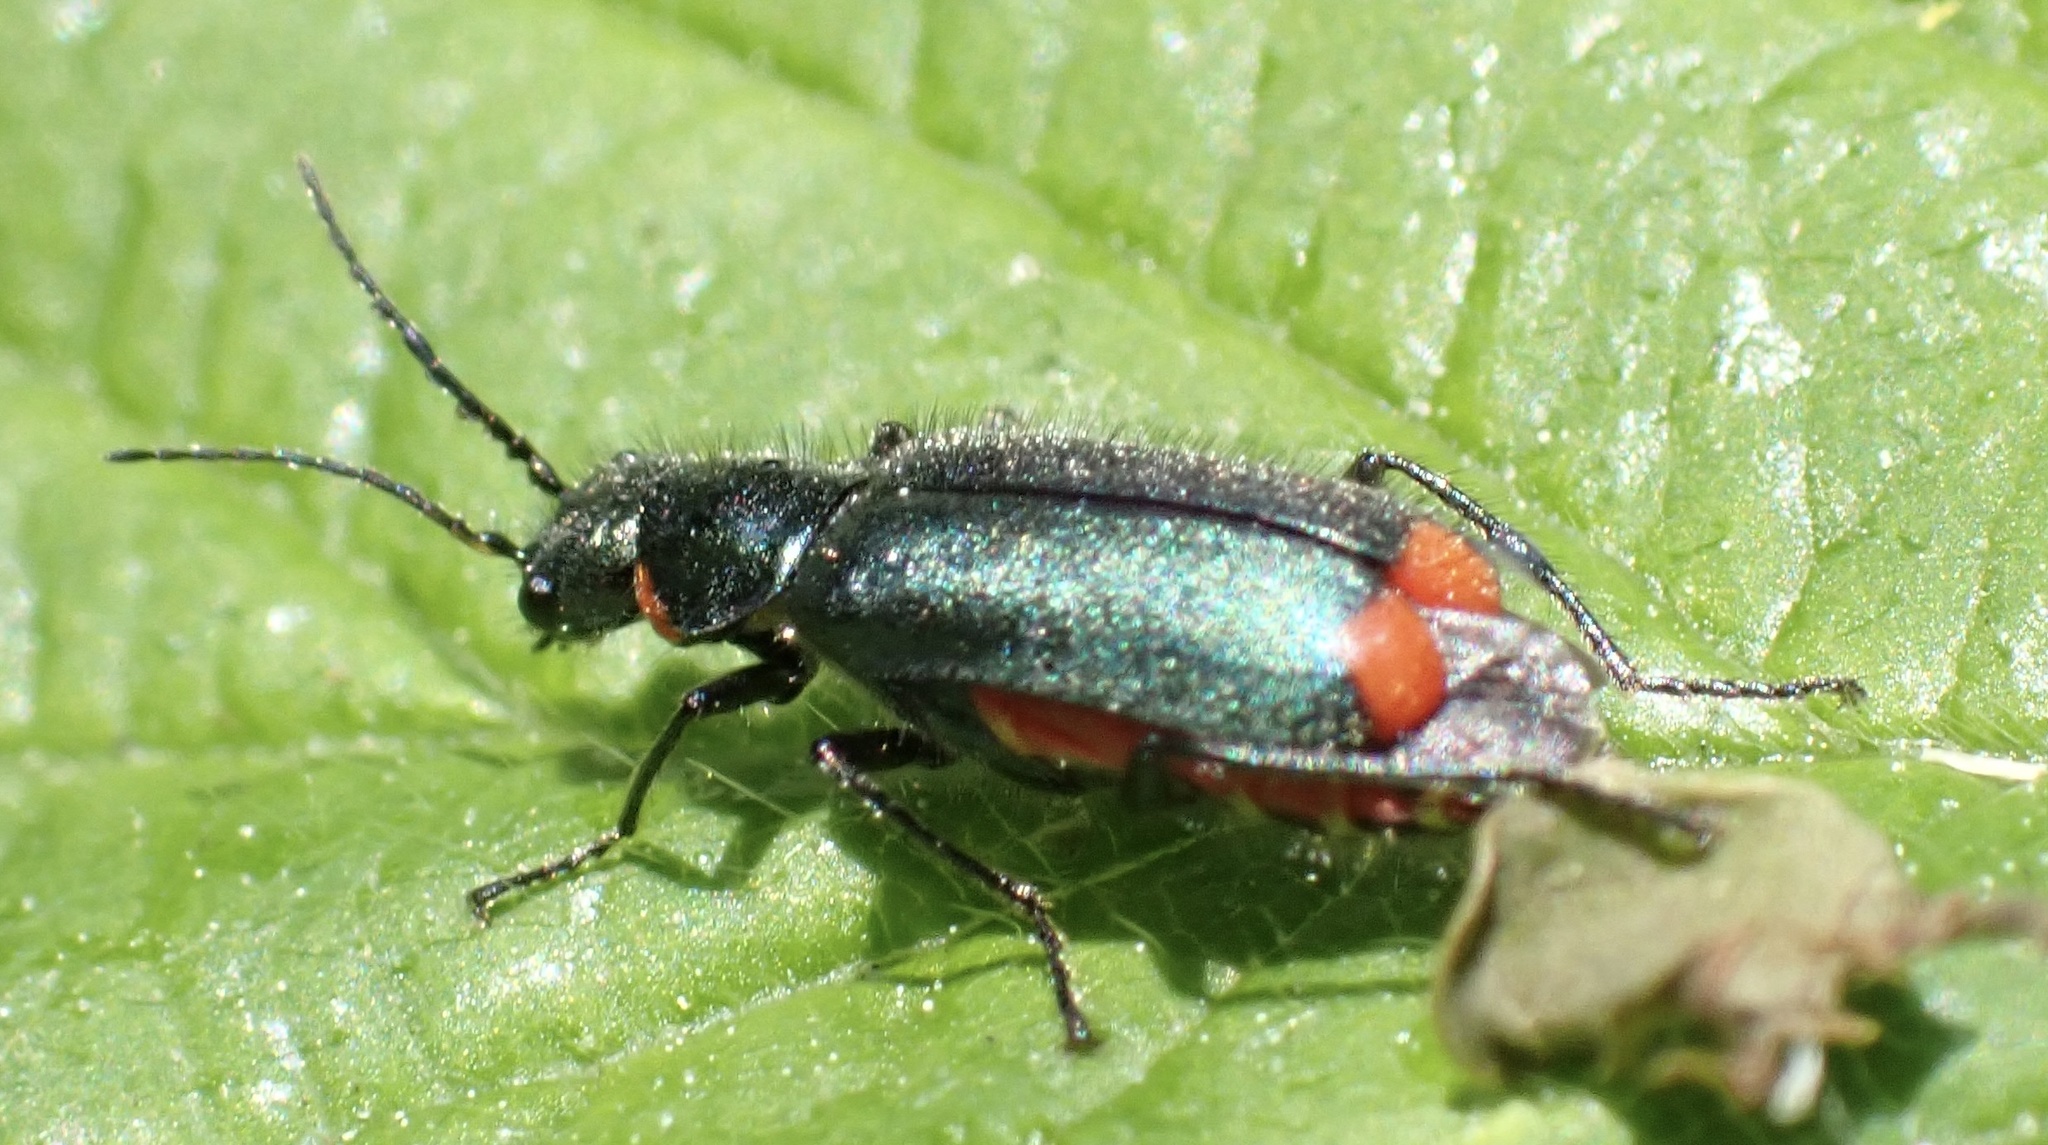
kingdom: Animalia
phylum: Arthropoda
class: Insecta
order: Coleoptera
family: Melyridae
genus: Malachius
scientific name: Malachius bipustulatus
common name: Malachite beetle
